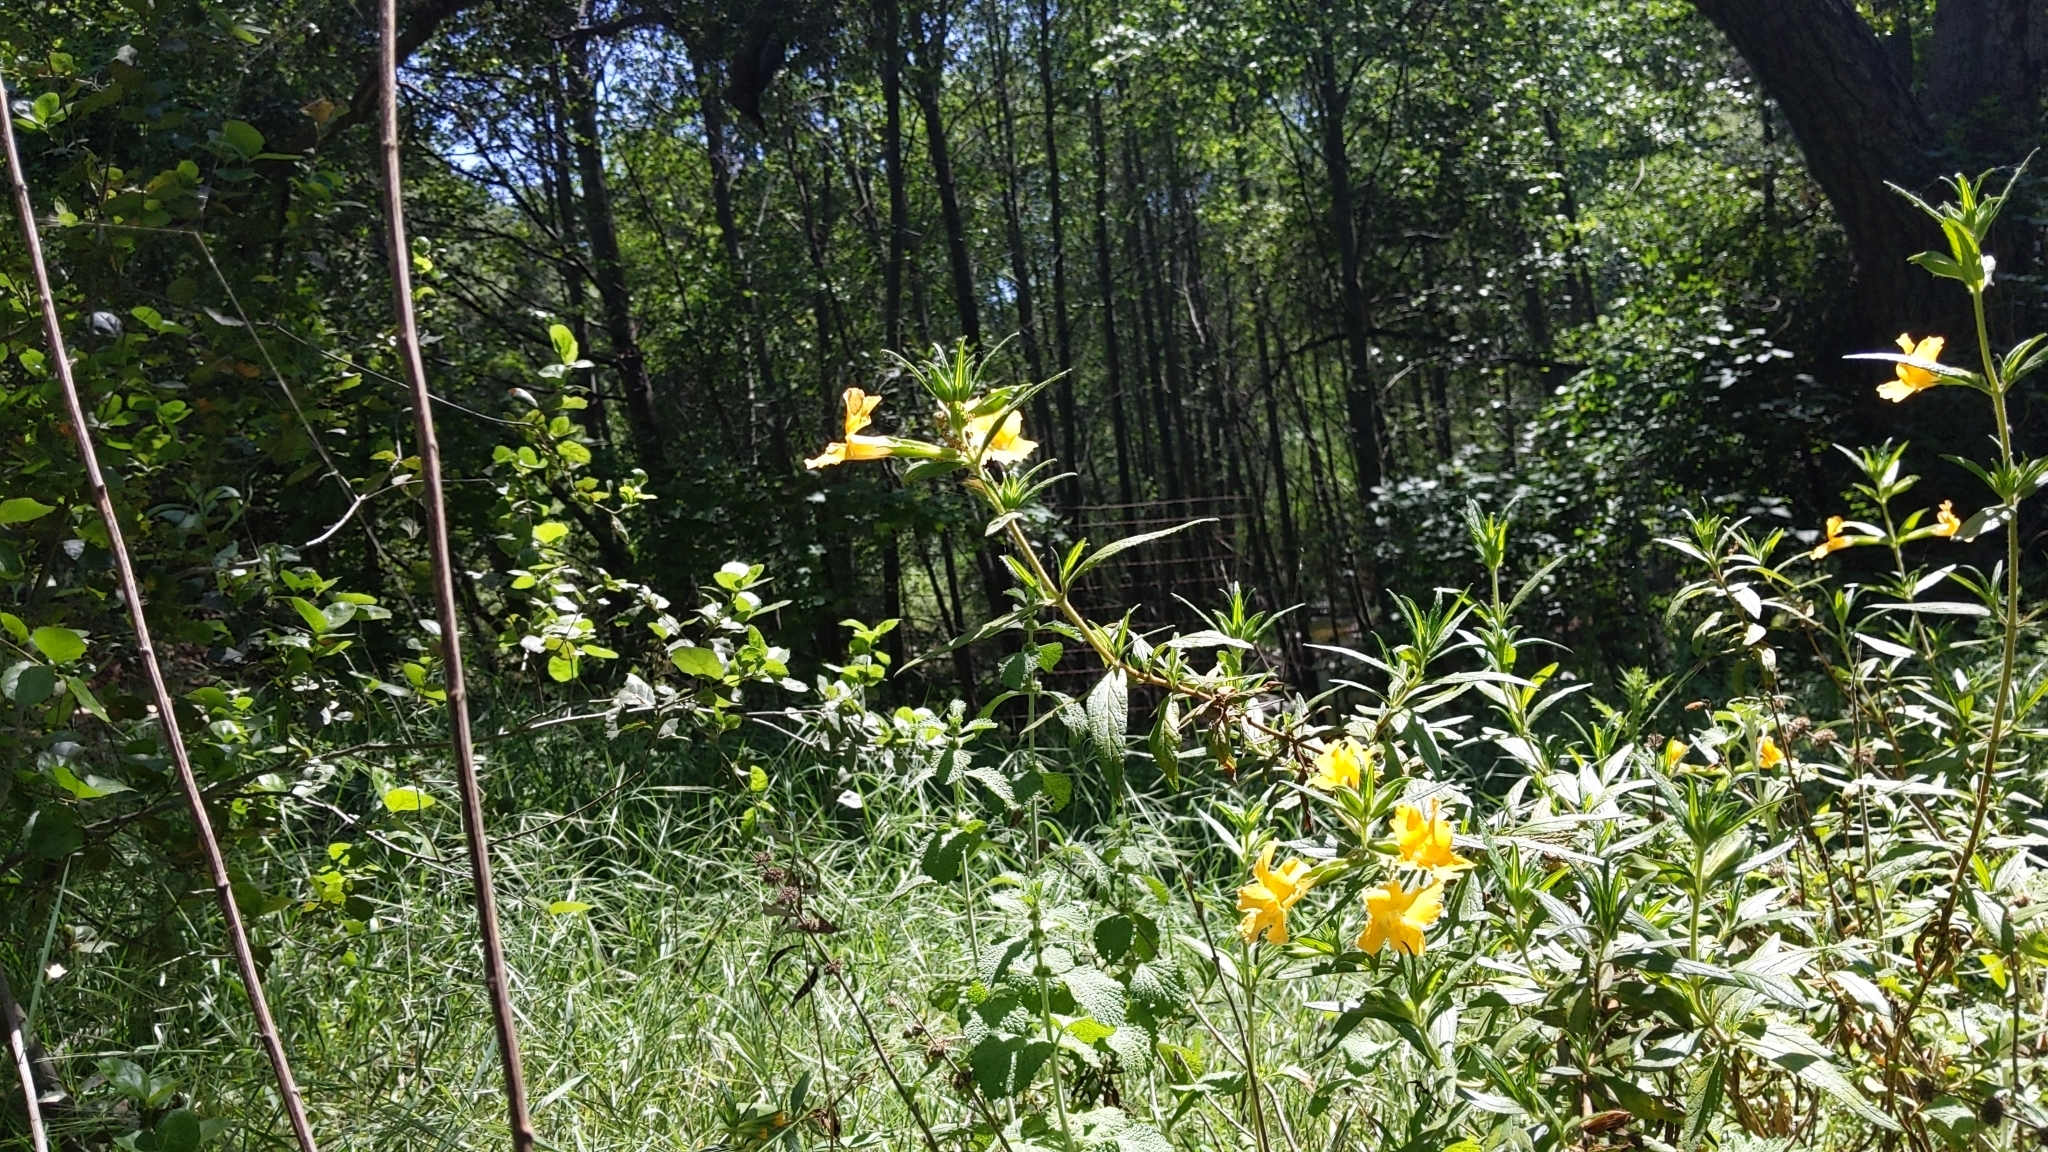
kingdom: Plantae
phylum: Tracheophyta
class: Magnoliopsida
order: Lamiales
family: Phrymaceae
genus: Diplacus
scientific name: Diplacus longiflorus
